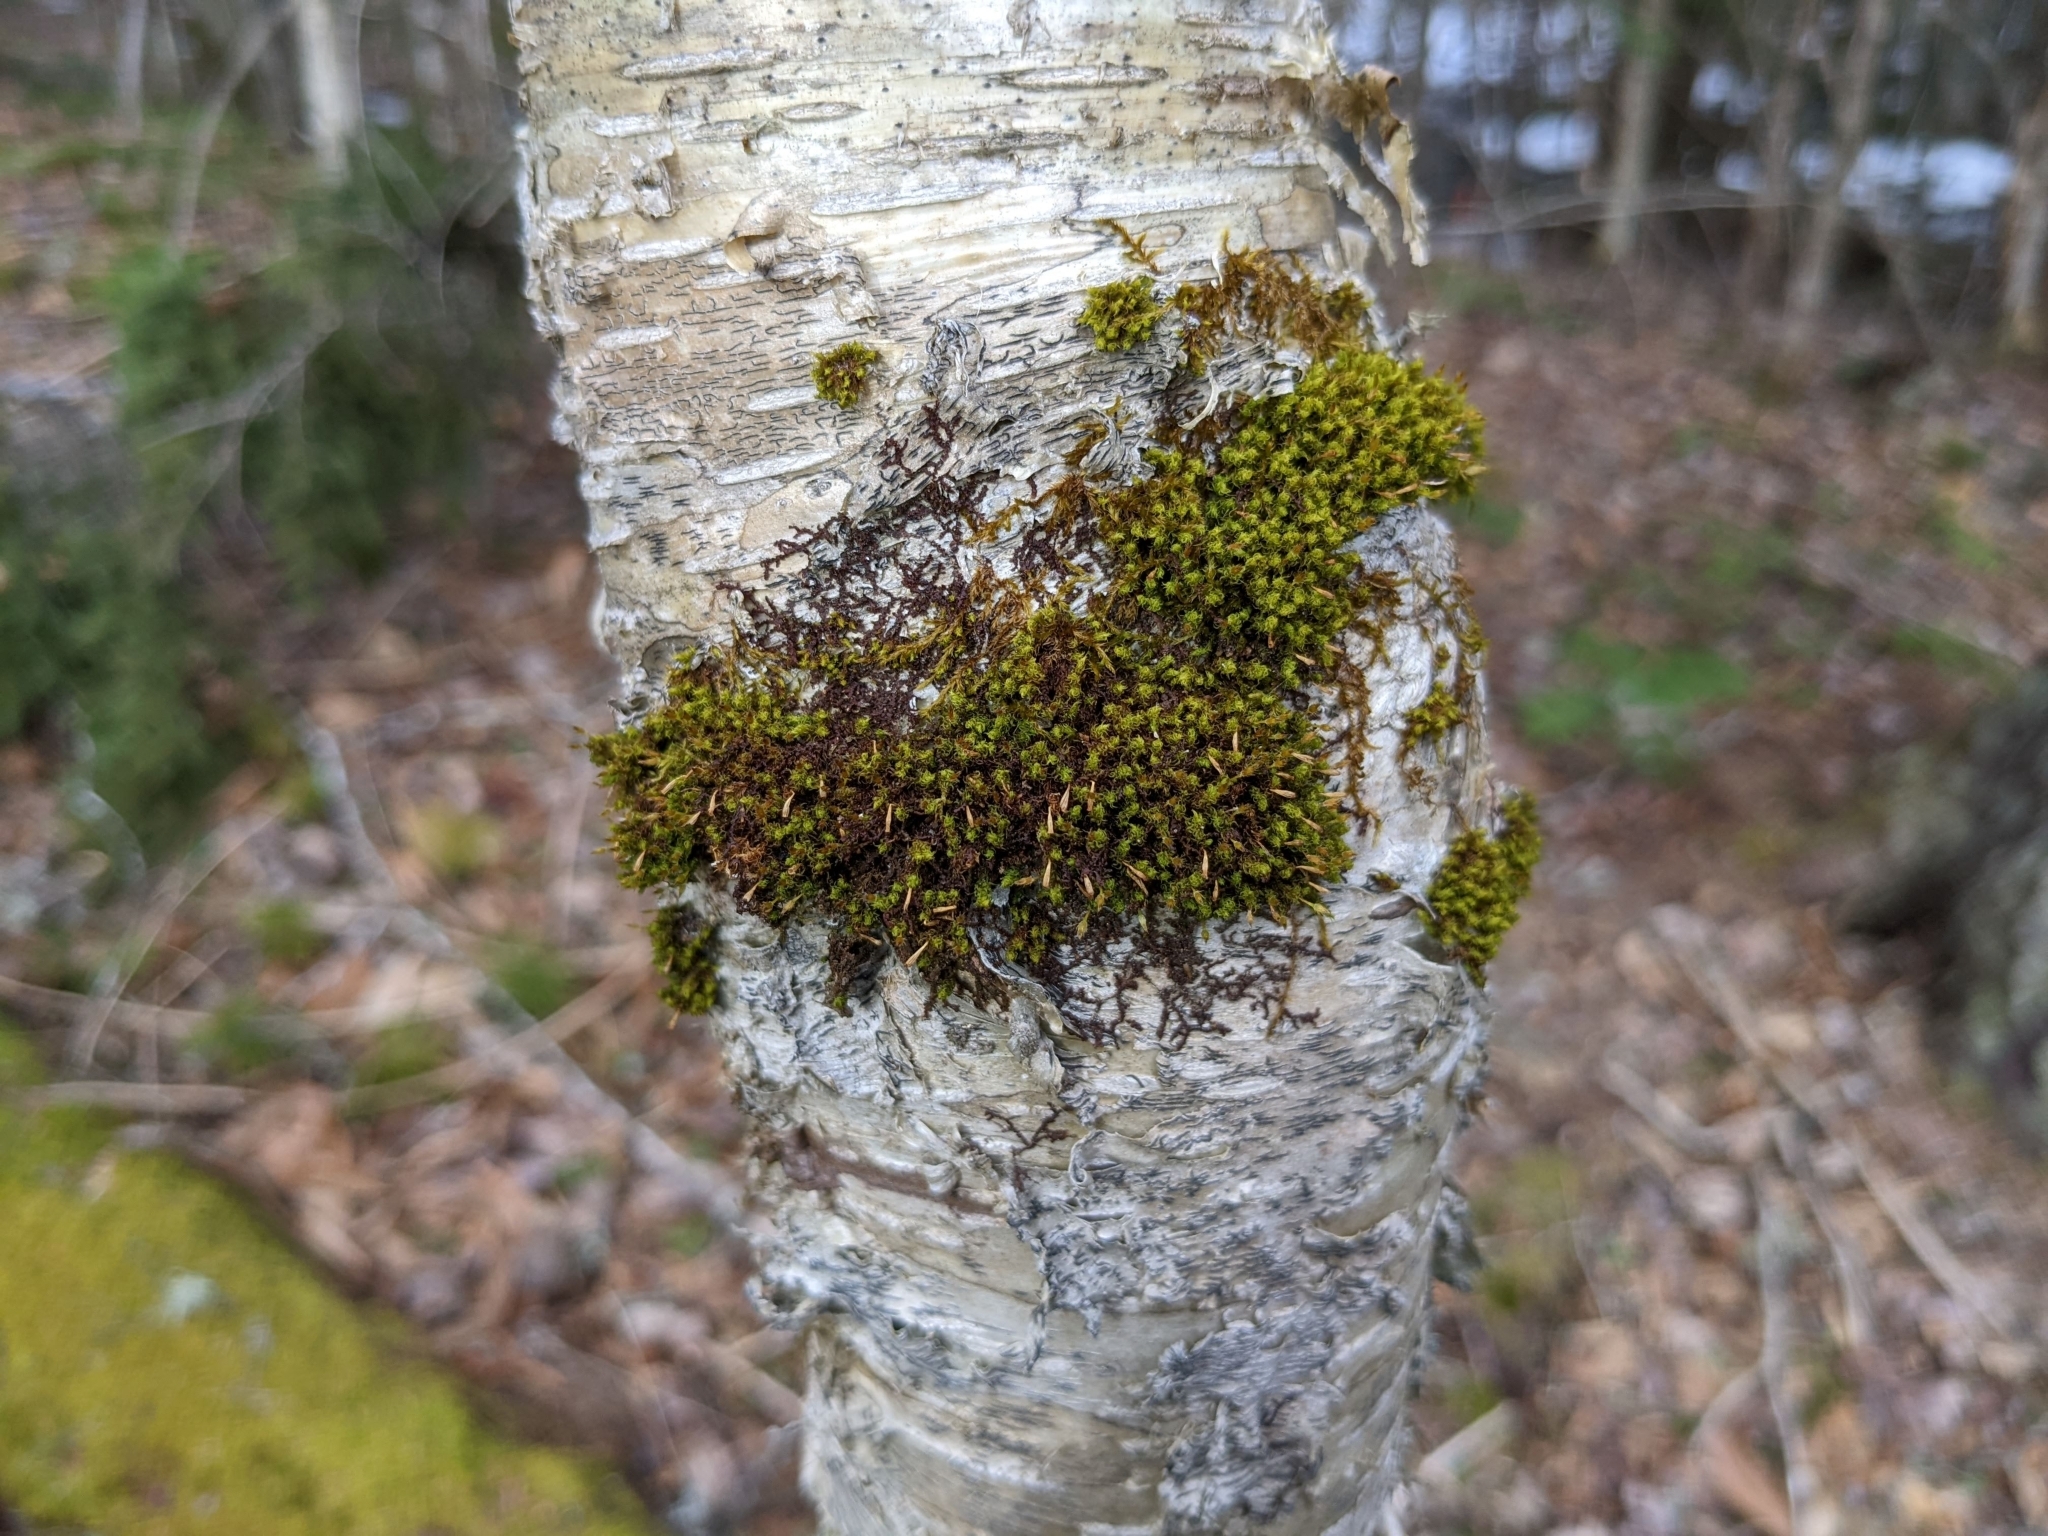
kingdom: Plantae
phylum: Bryophyta
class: Bryopsida
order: Orthotrichales
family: Orthotrichaceae
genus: Ulota
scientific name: Ulota crispa
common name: Crisped pincushion moss
